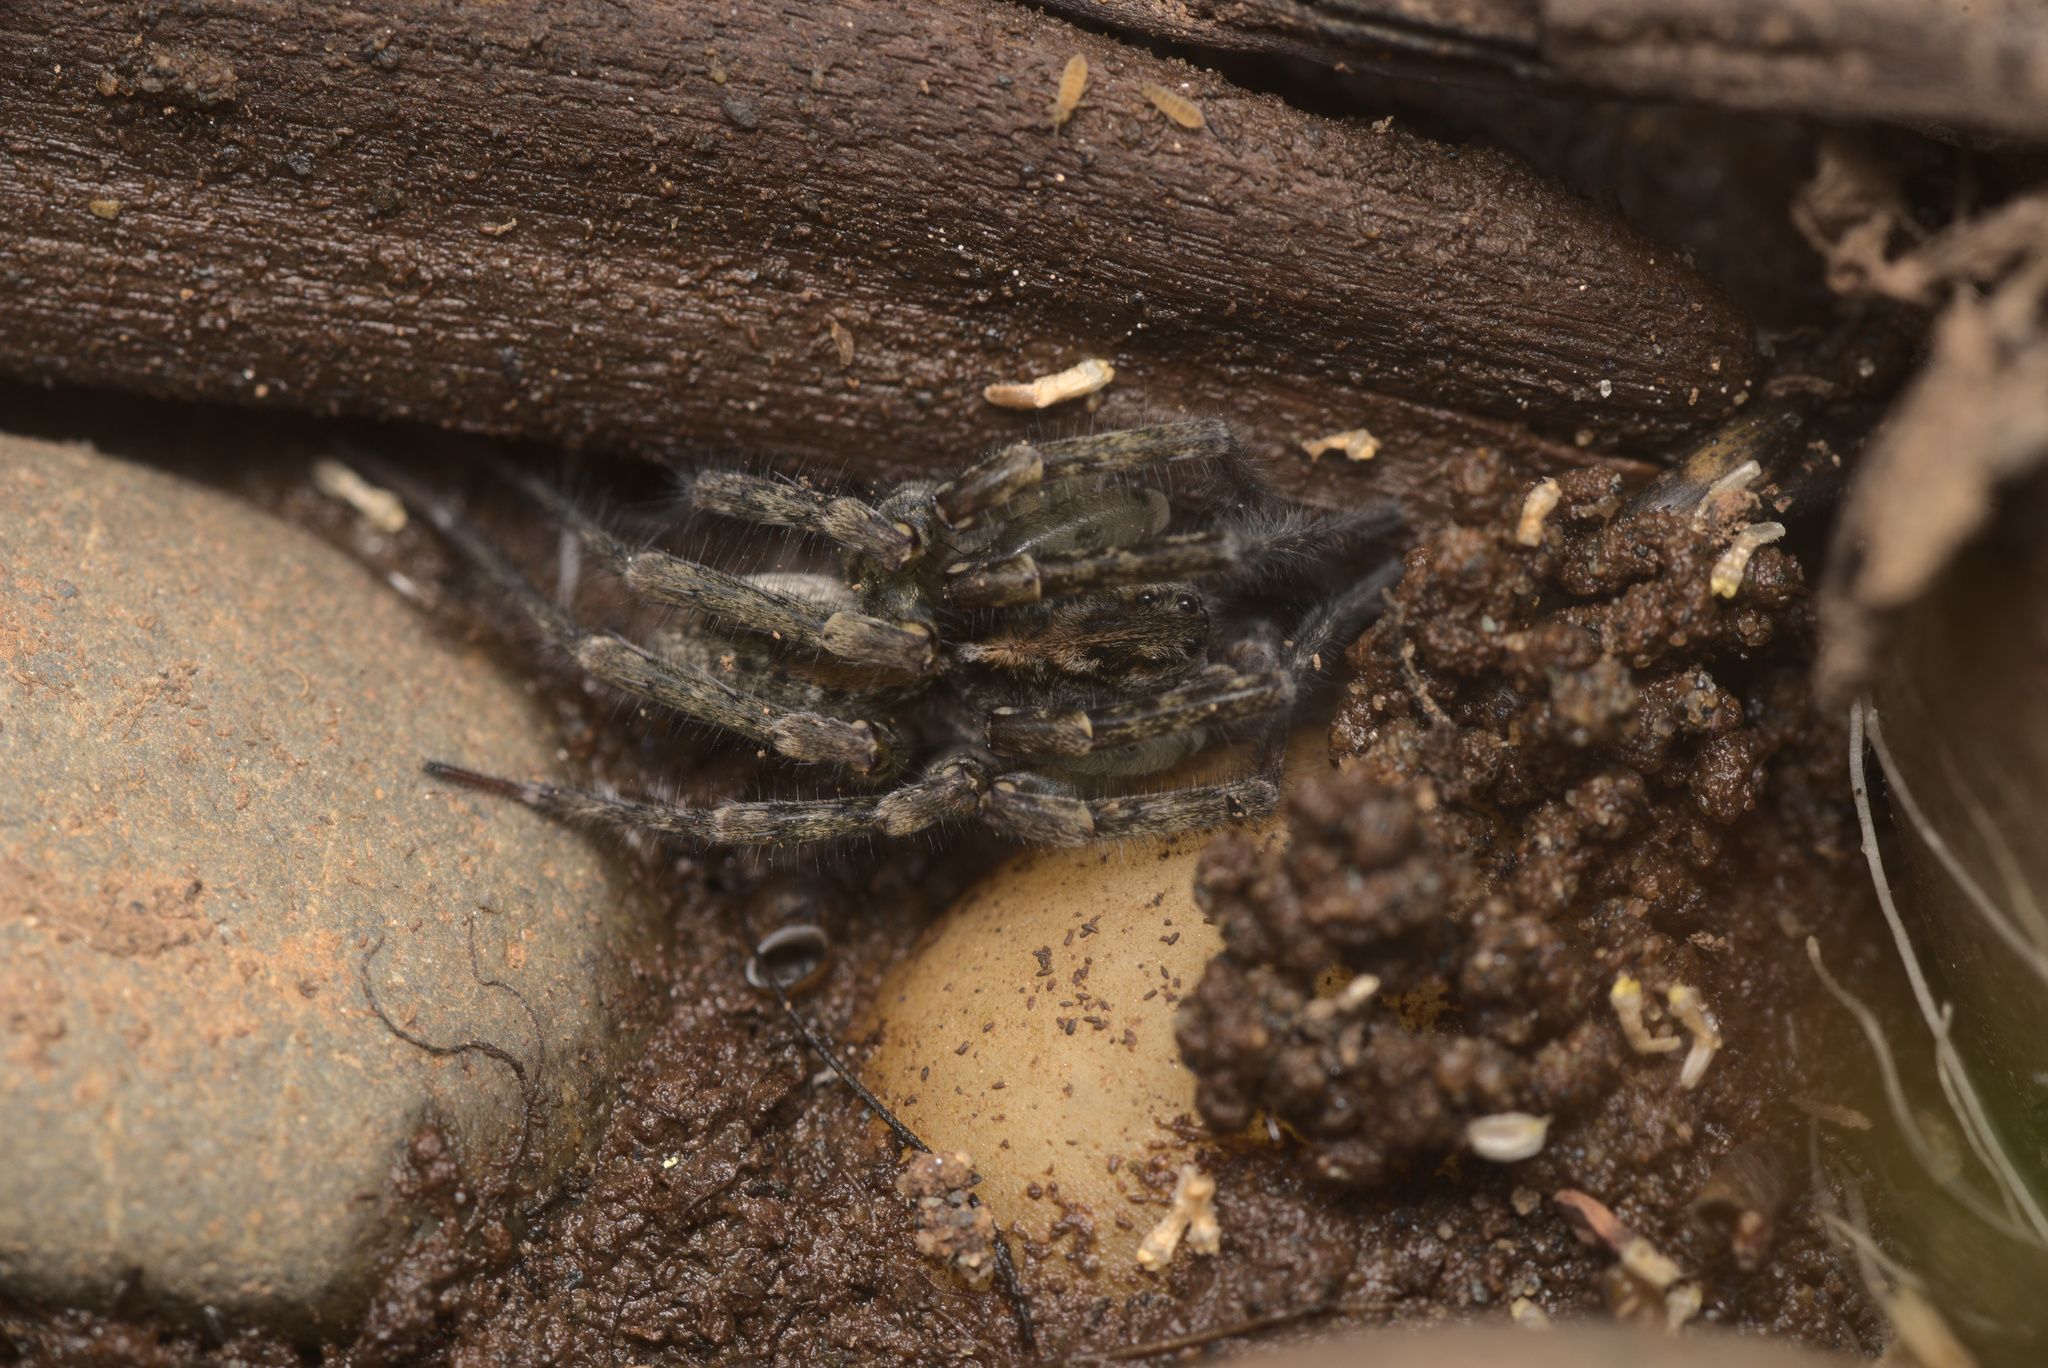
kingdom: Animalia
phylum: Arthropoda
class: Arachnida
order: Araneae
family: Lycosidae
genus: Anoteropsis
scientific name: Anoteropsis senica
